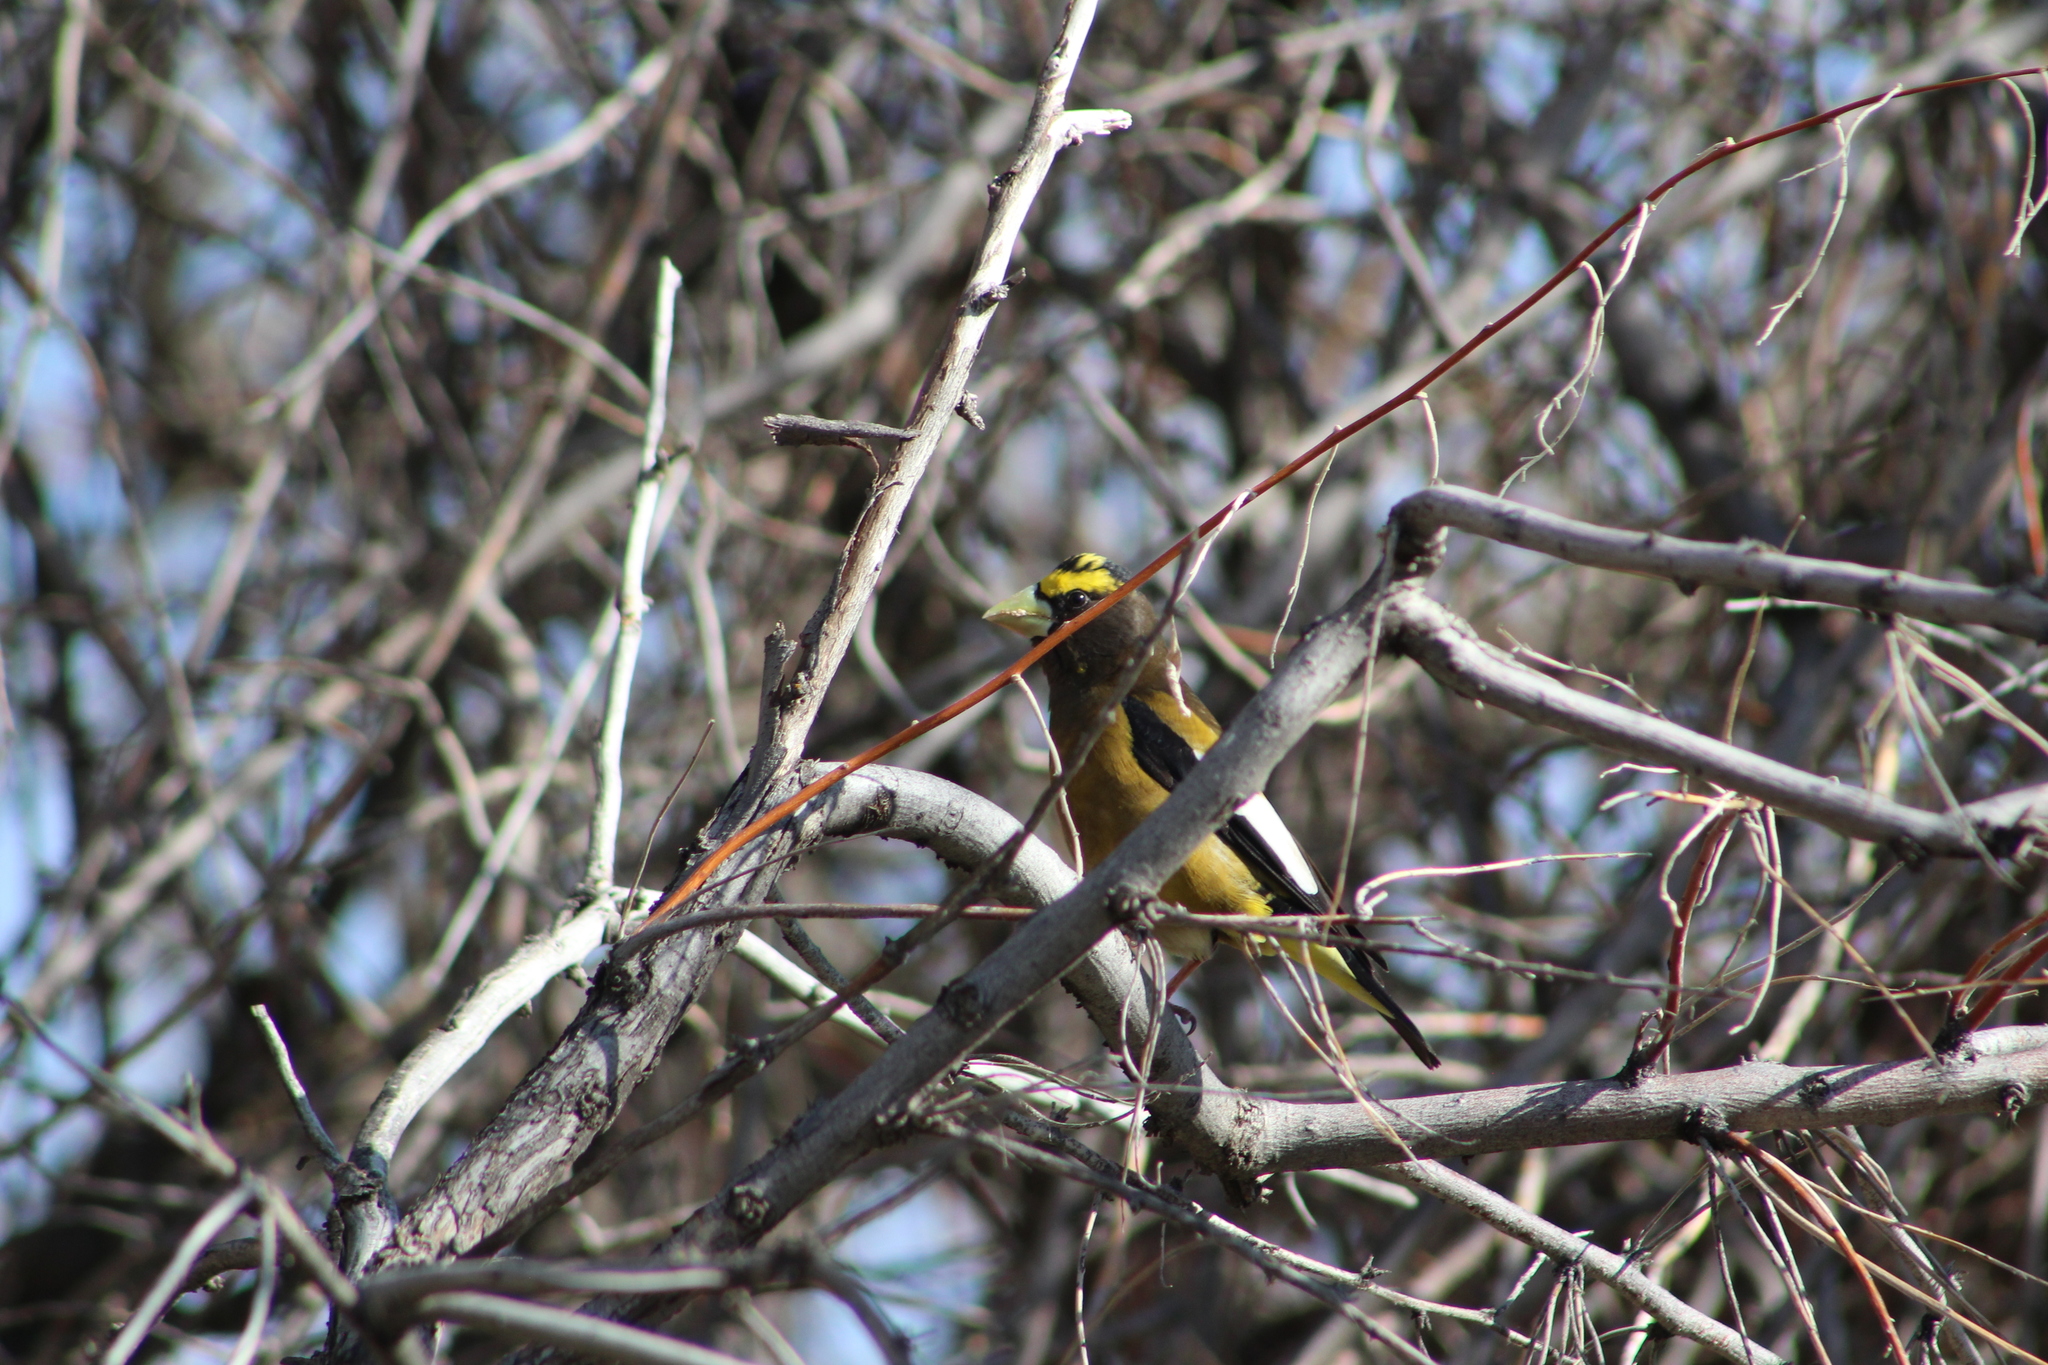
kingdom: Animalia
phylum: Chordata
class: Aves
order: Passeriformes
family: Fringillidae
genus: Hesperiphona
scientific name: Hesperiphona vespertina
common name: Evening grosbeak
